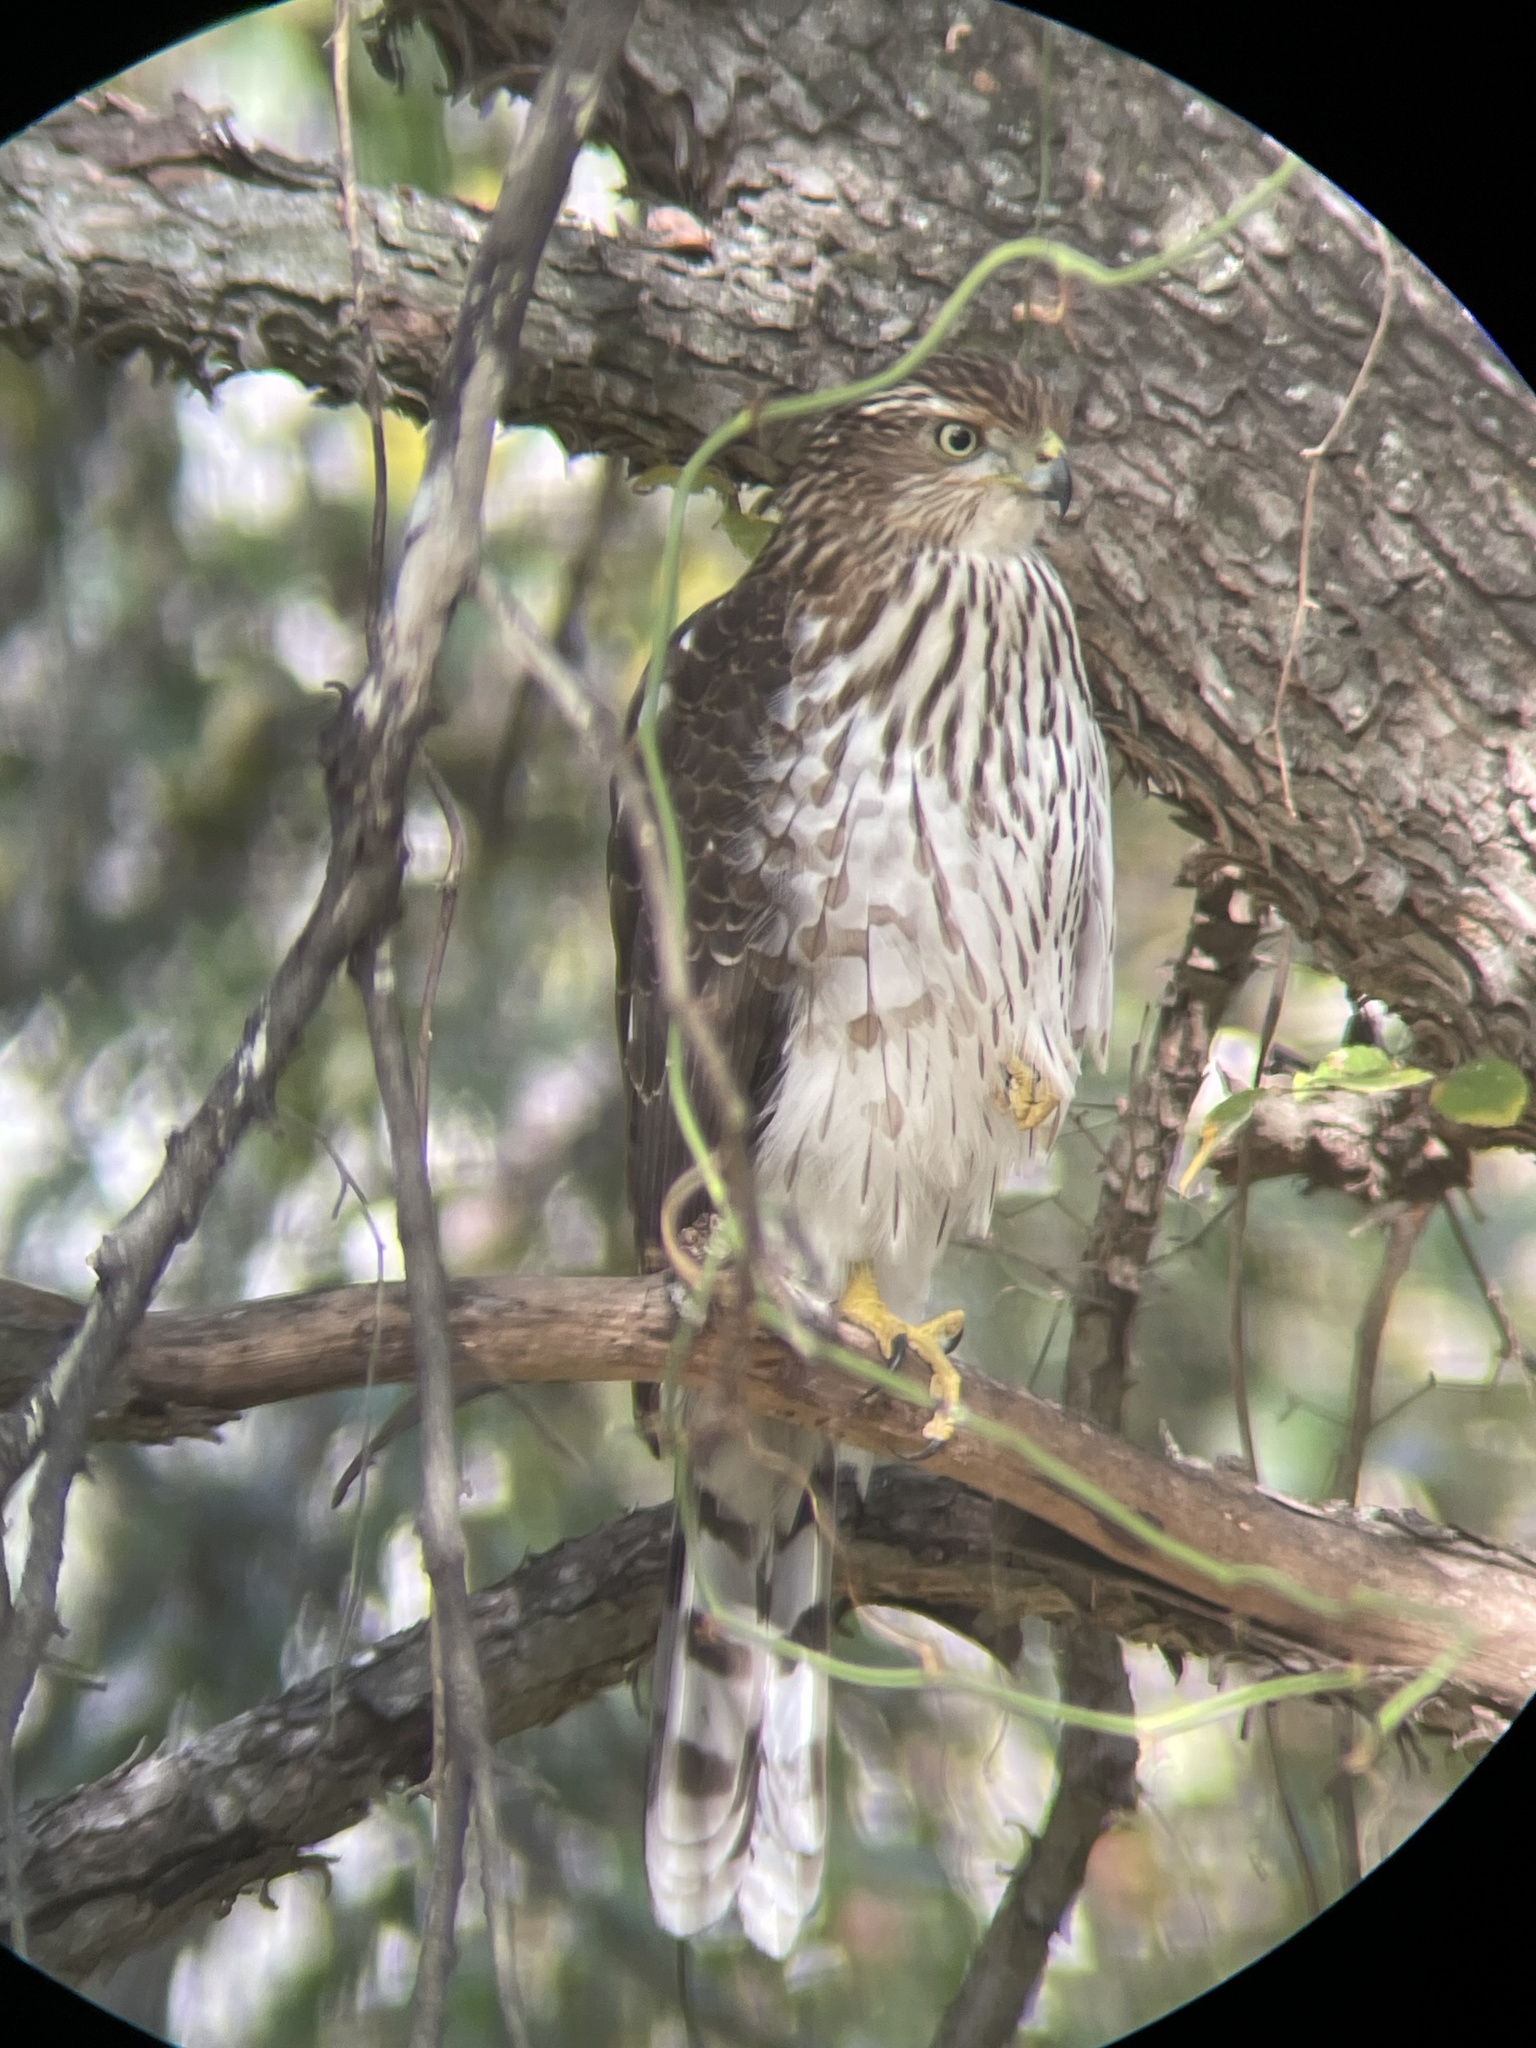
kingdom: Animalia
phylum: Chordata
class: Aves
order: Accipitriformes
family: Accipitridae
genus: Accipiter
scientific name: Accipiter cooperii
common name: Cooper's hawk
